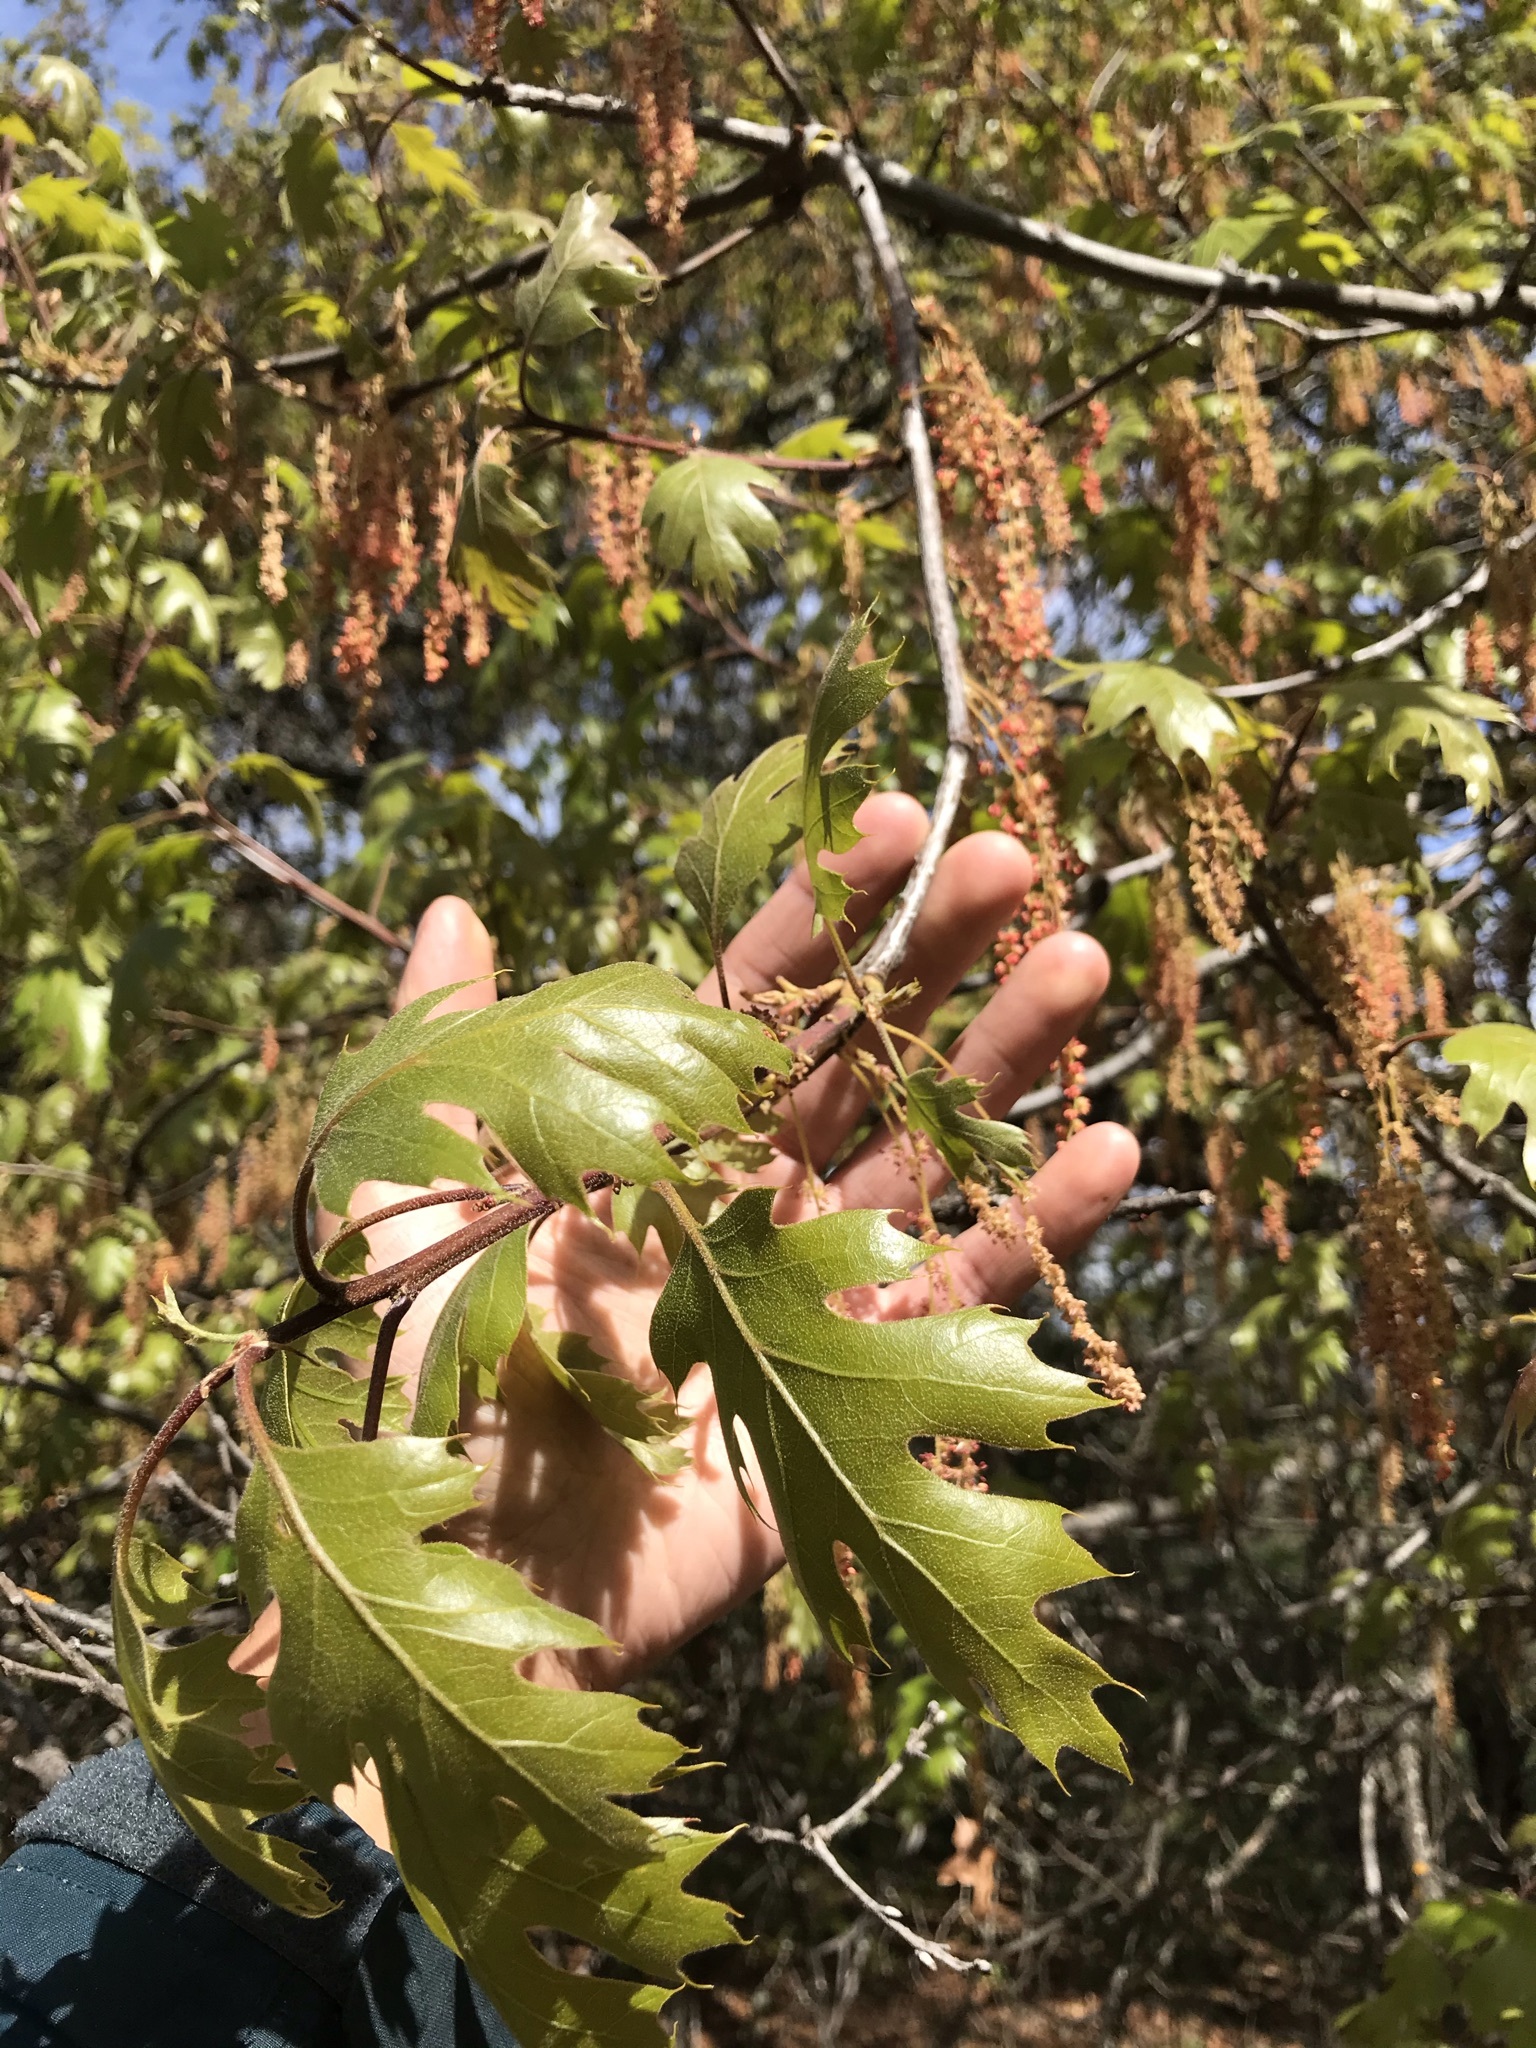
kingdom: Plantae
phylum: Tracheophyta
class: Magnoliopsida
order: Fagales
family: Fagaceae
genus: Quercus
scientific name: Quercus kelloggii
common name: California black oak
